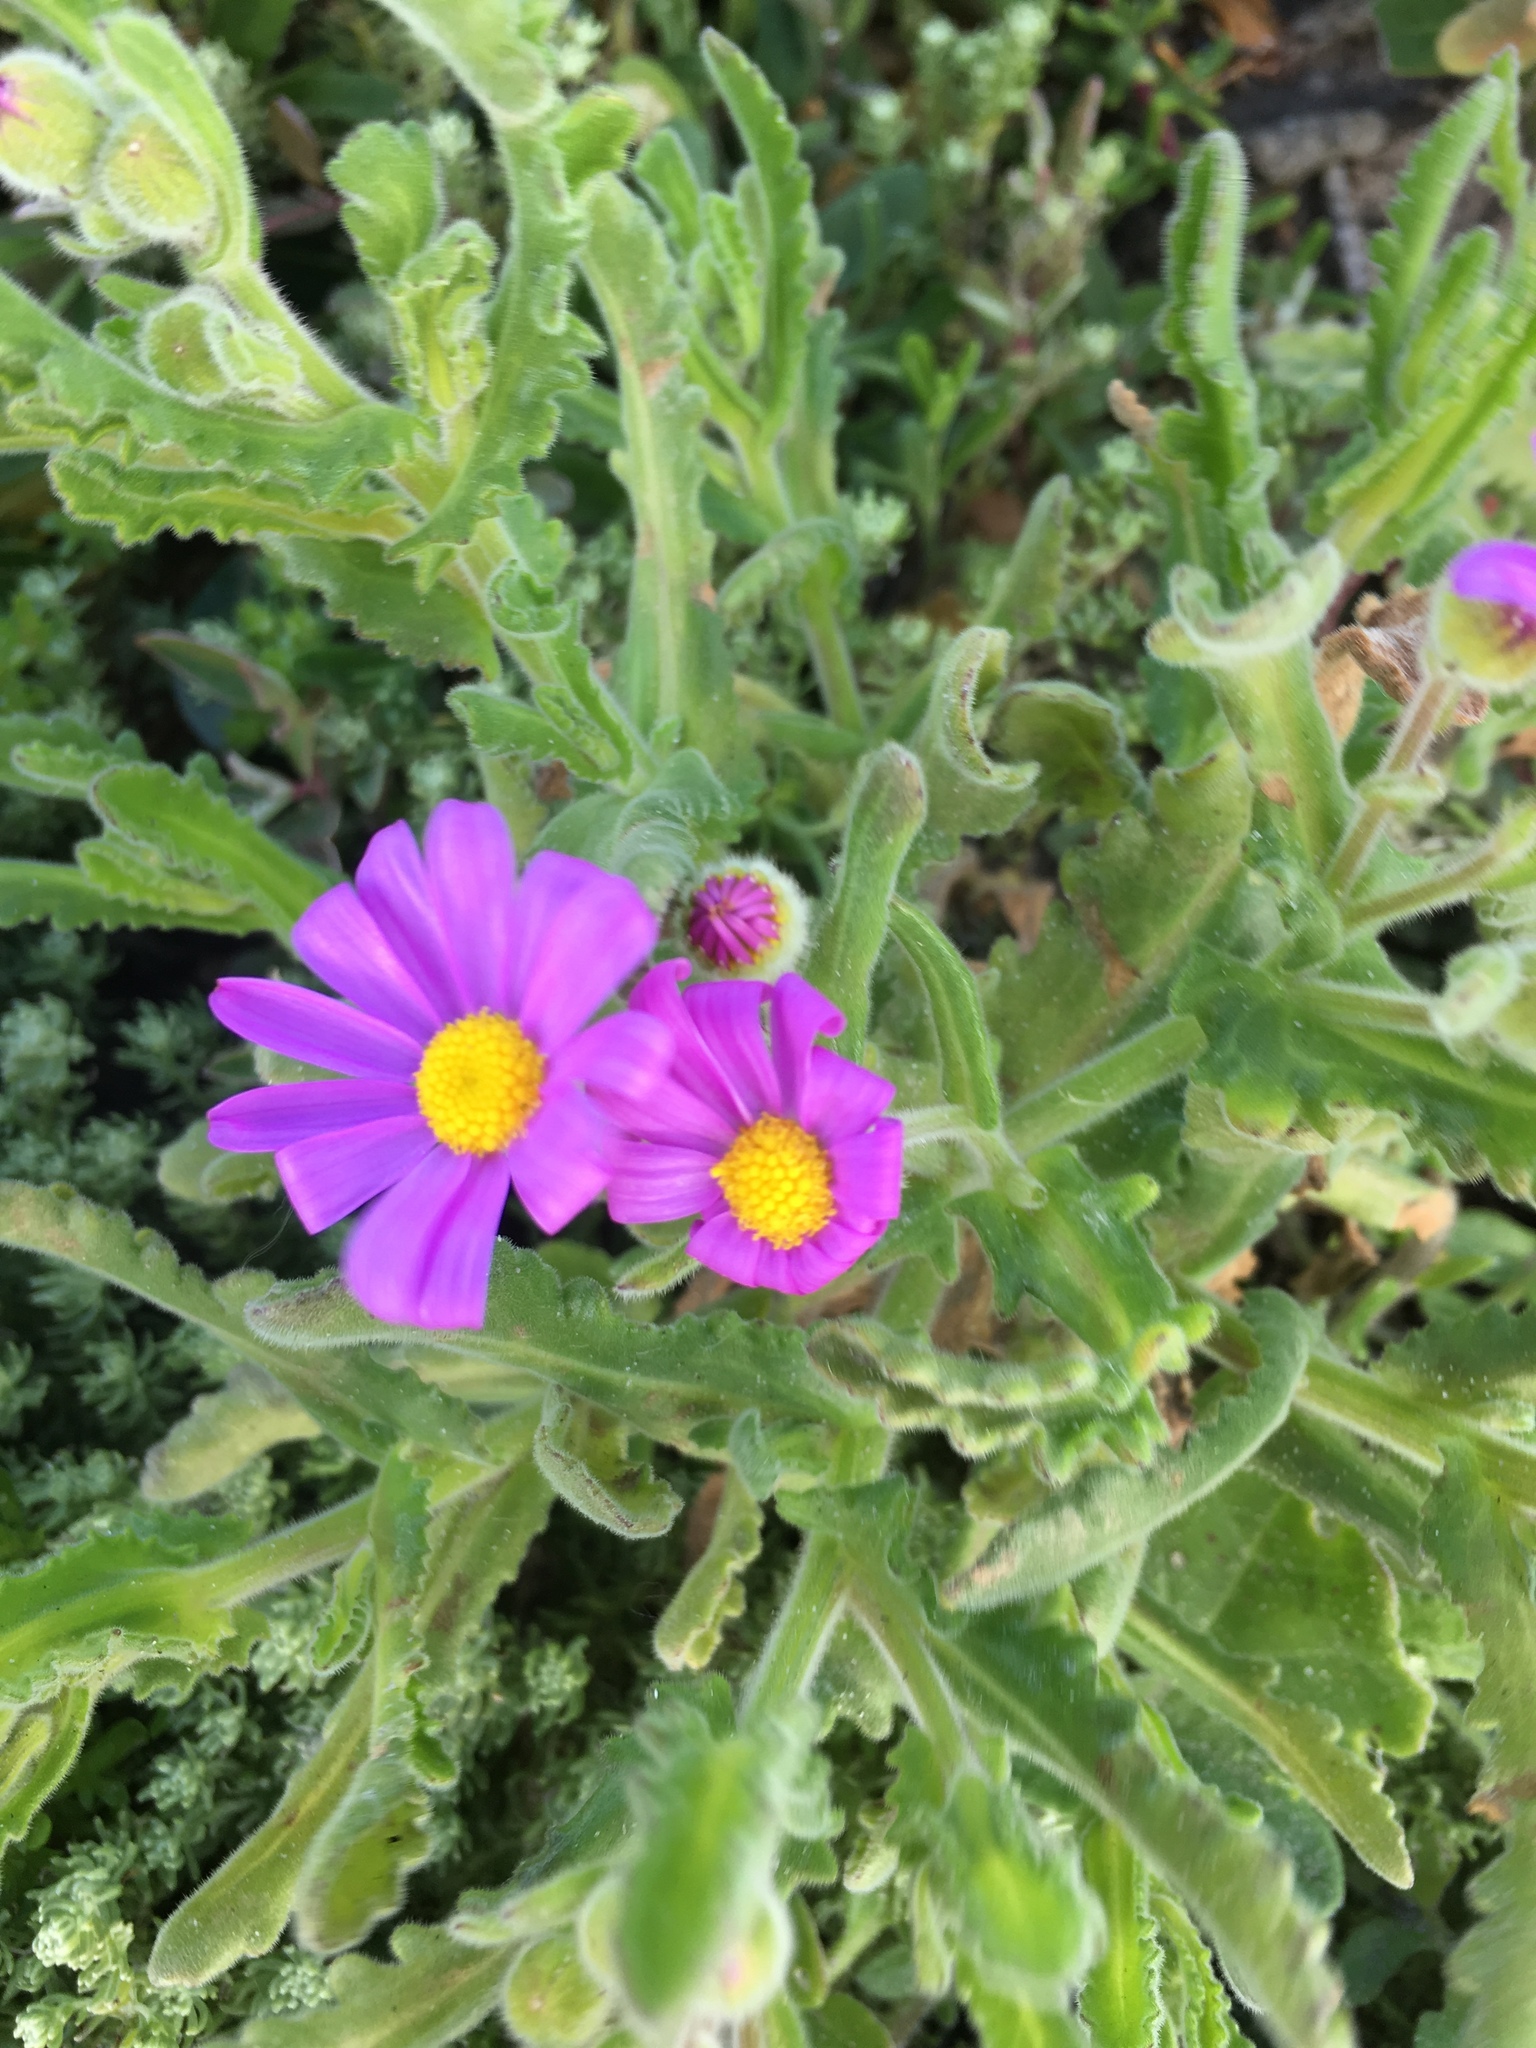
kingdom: Plantae
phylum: Tracheophyta
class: Magnoliopsida
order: Asterales
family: Asteraceae
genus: Senecio
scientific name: Senecio arenarius
